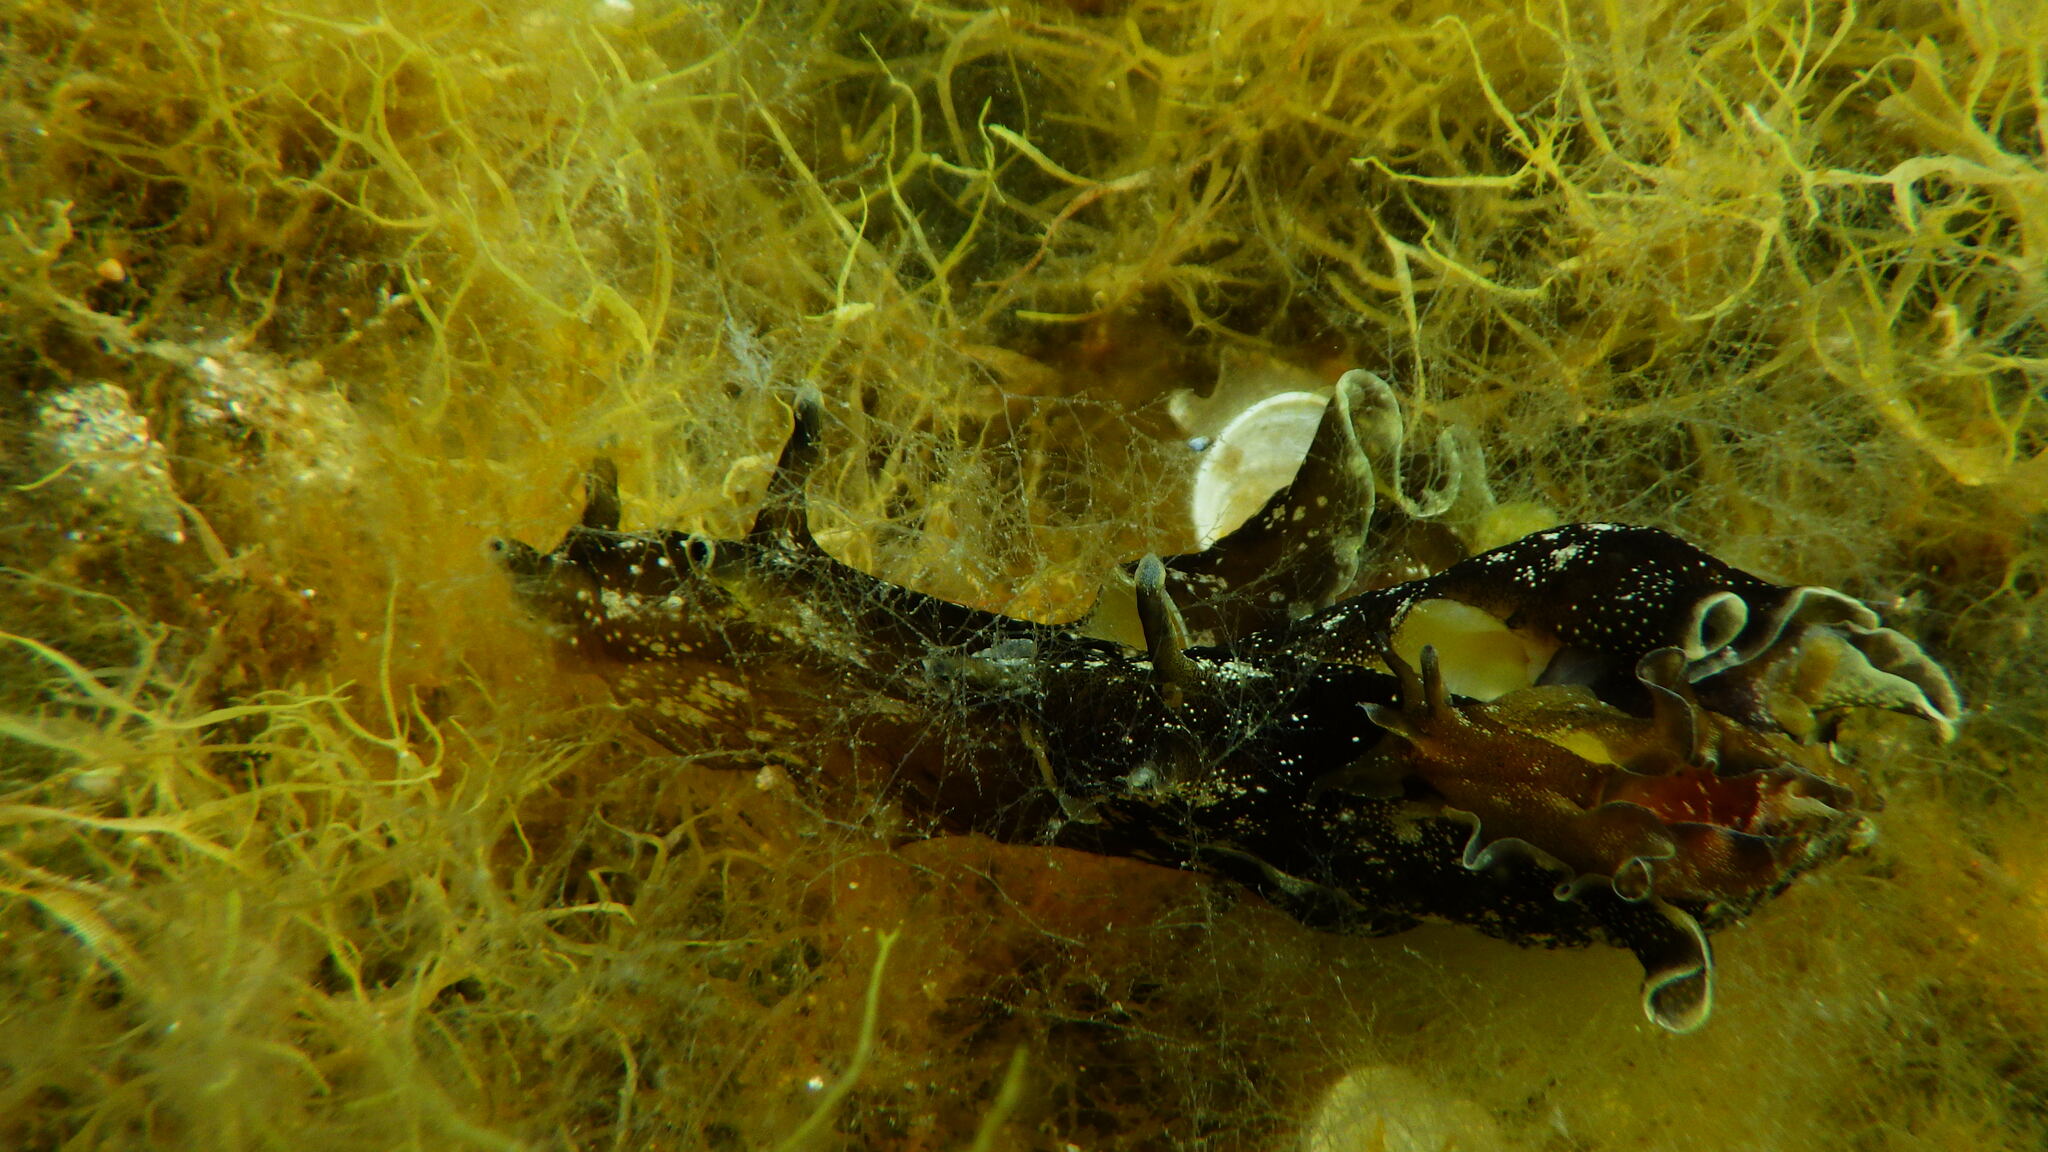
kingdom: Animalia
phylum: Mollusca
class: Gastropoda
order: Aplysiida
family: Aplysiidae
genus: Aplysia
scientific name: Aplysia punctata
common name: Common sea hare
